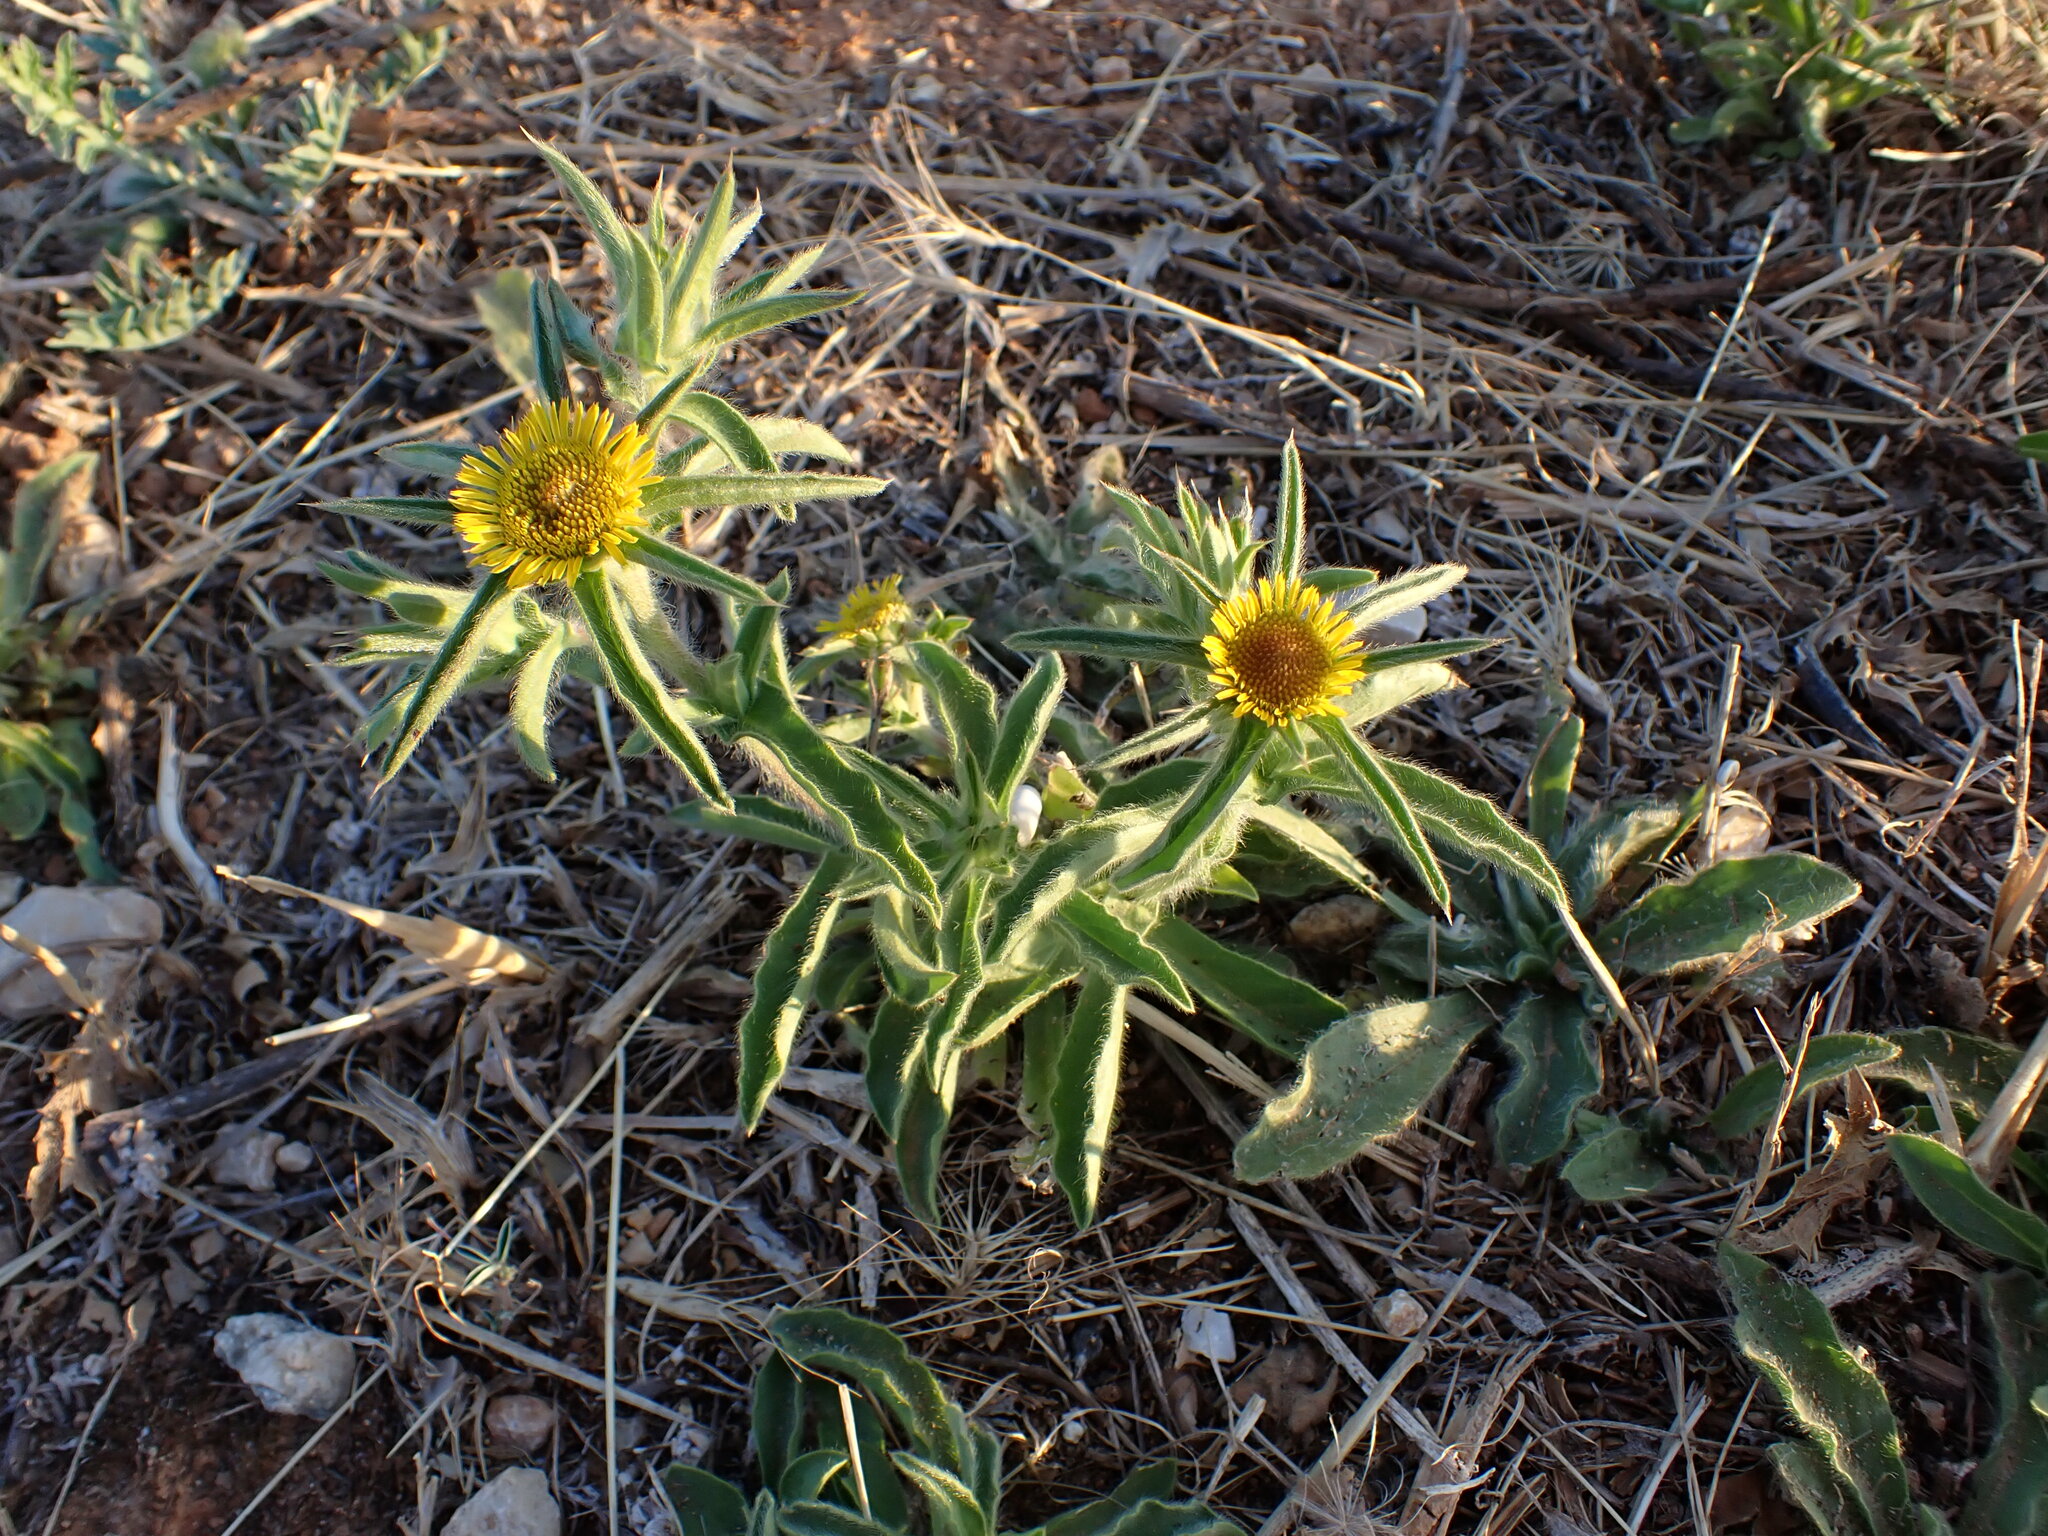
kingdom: Plantae
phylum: Tracheophyta
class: Magnoliopsida
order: Asterales
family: Asteraceae
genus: Pallenis
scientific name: Pallenis spinosa
